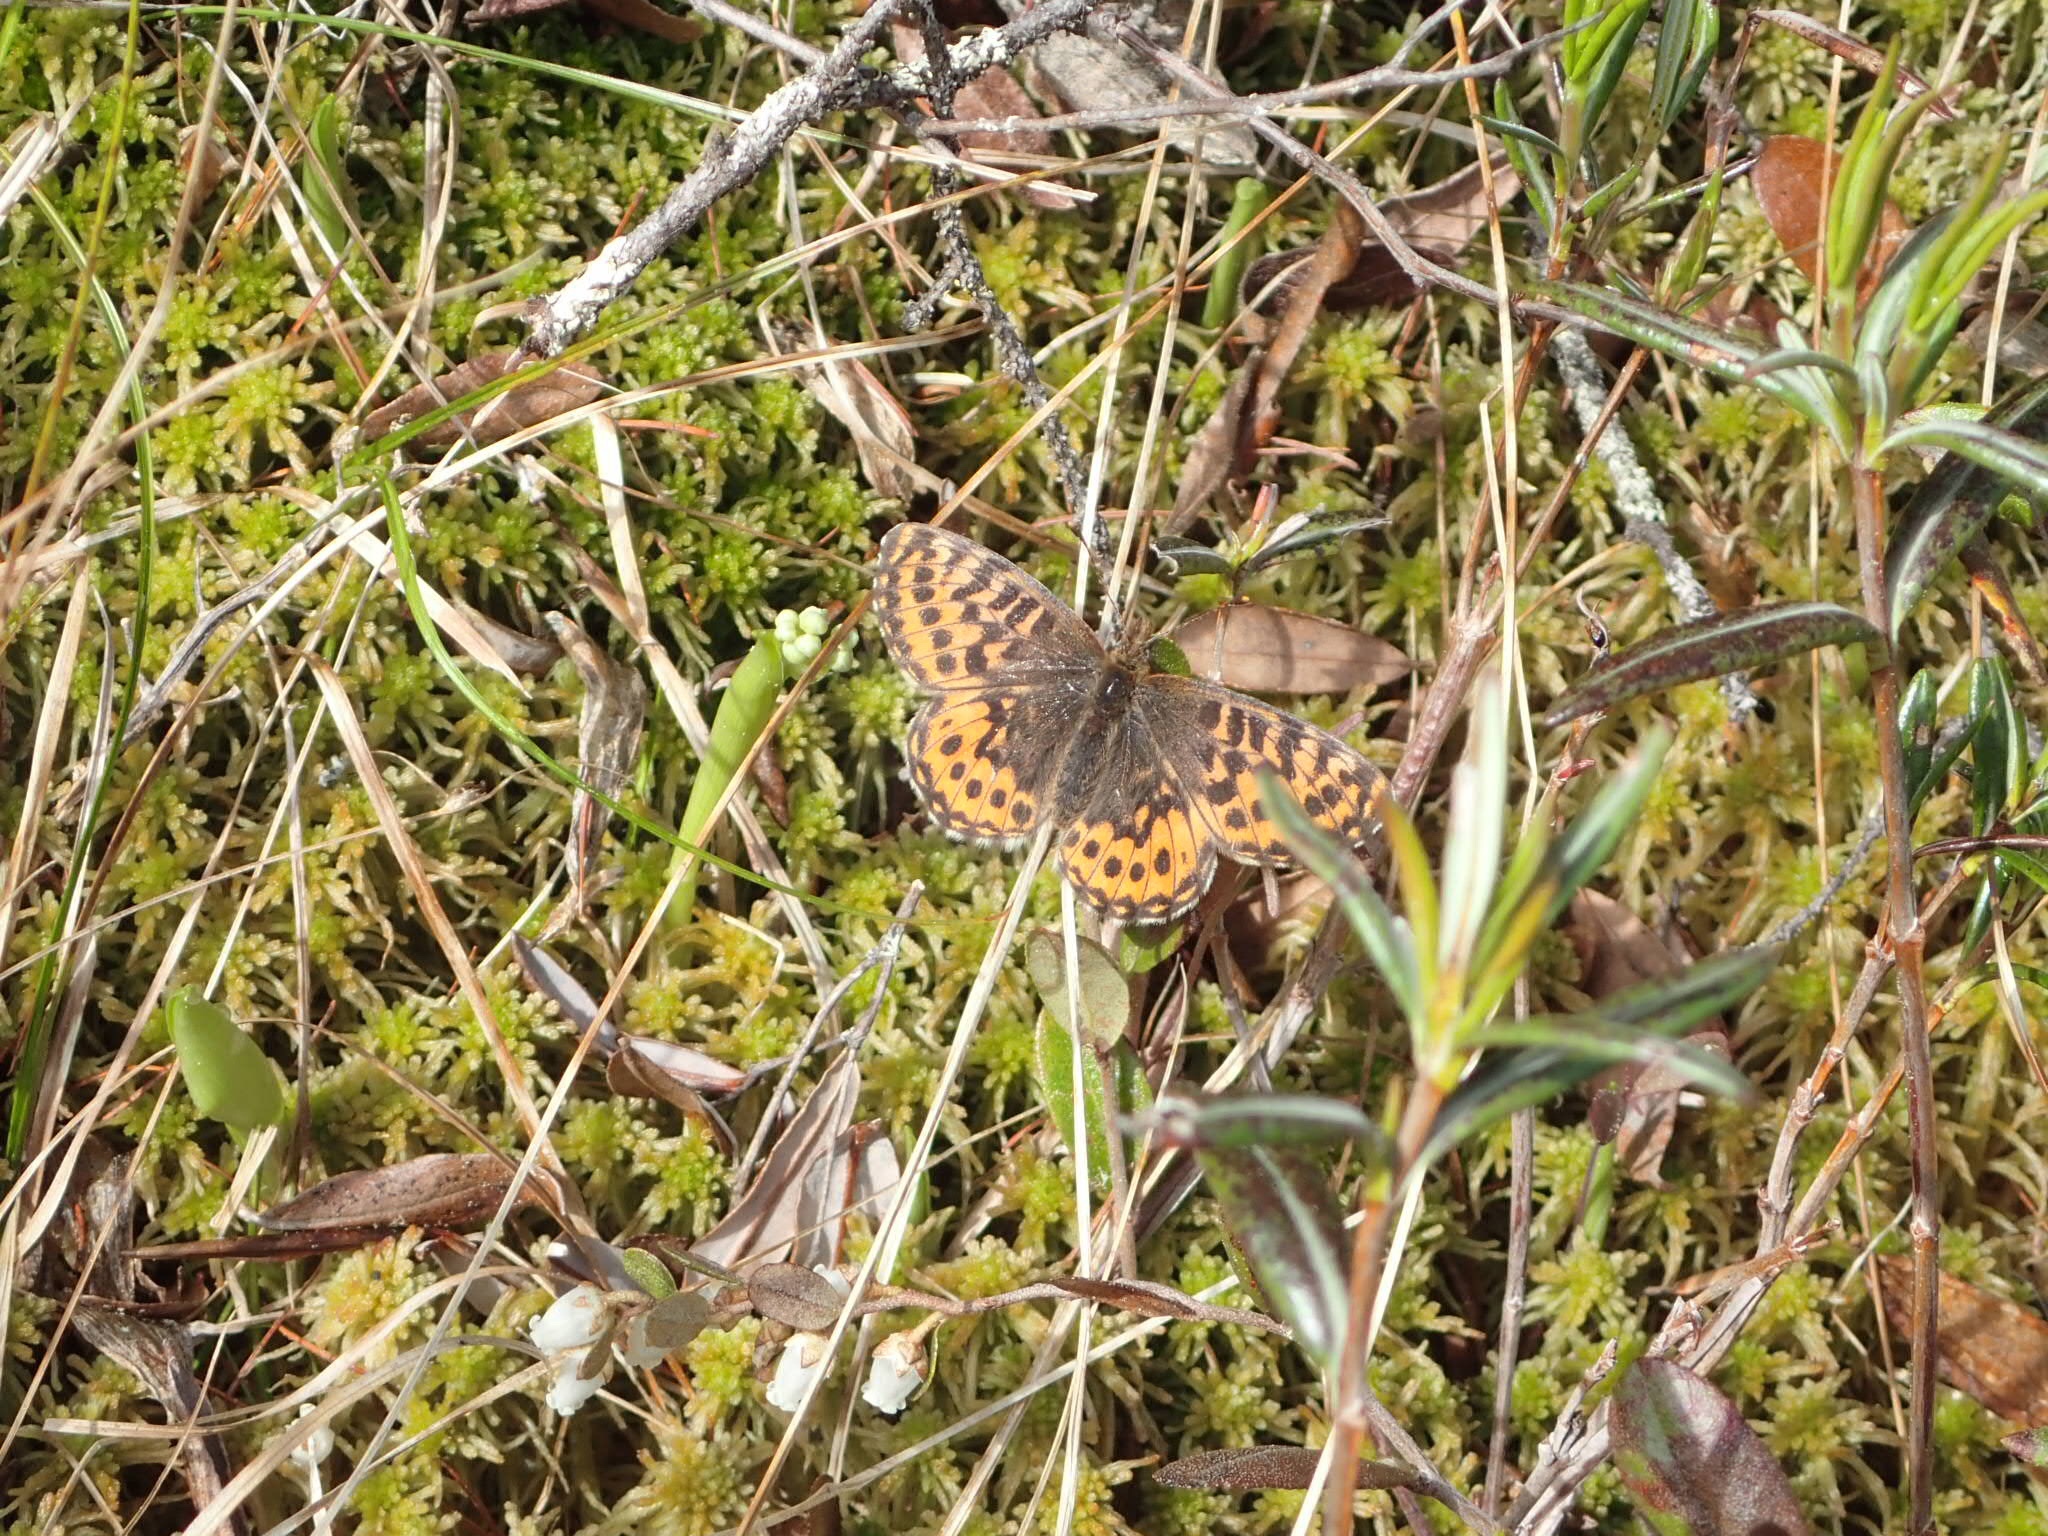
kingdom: Animalia
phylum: Arthropoda
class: Insecta
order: Lepidoptera
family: Nymphalidae
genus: Boloria
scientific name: Boloria freija
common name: Freija fritillary
